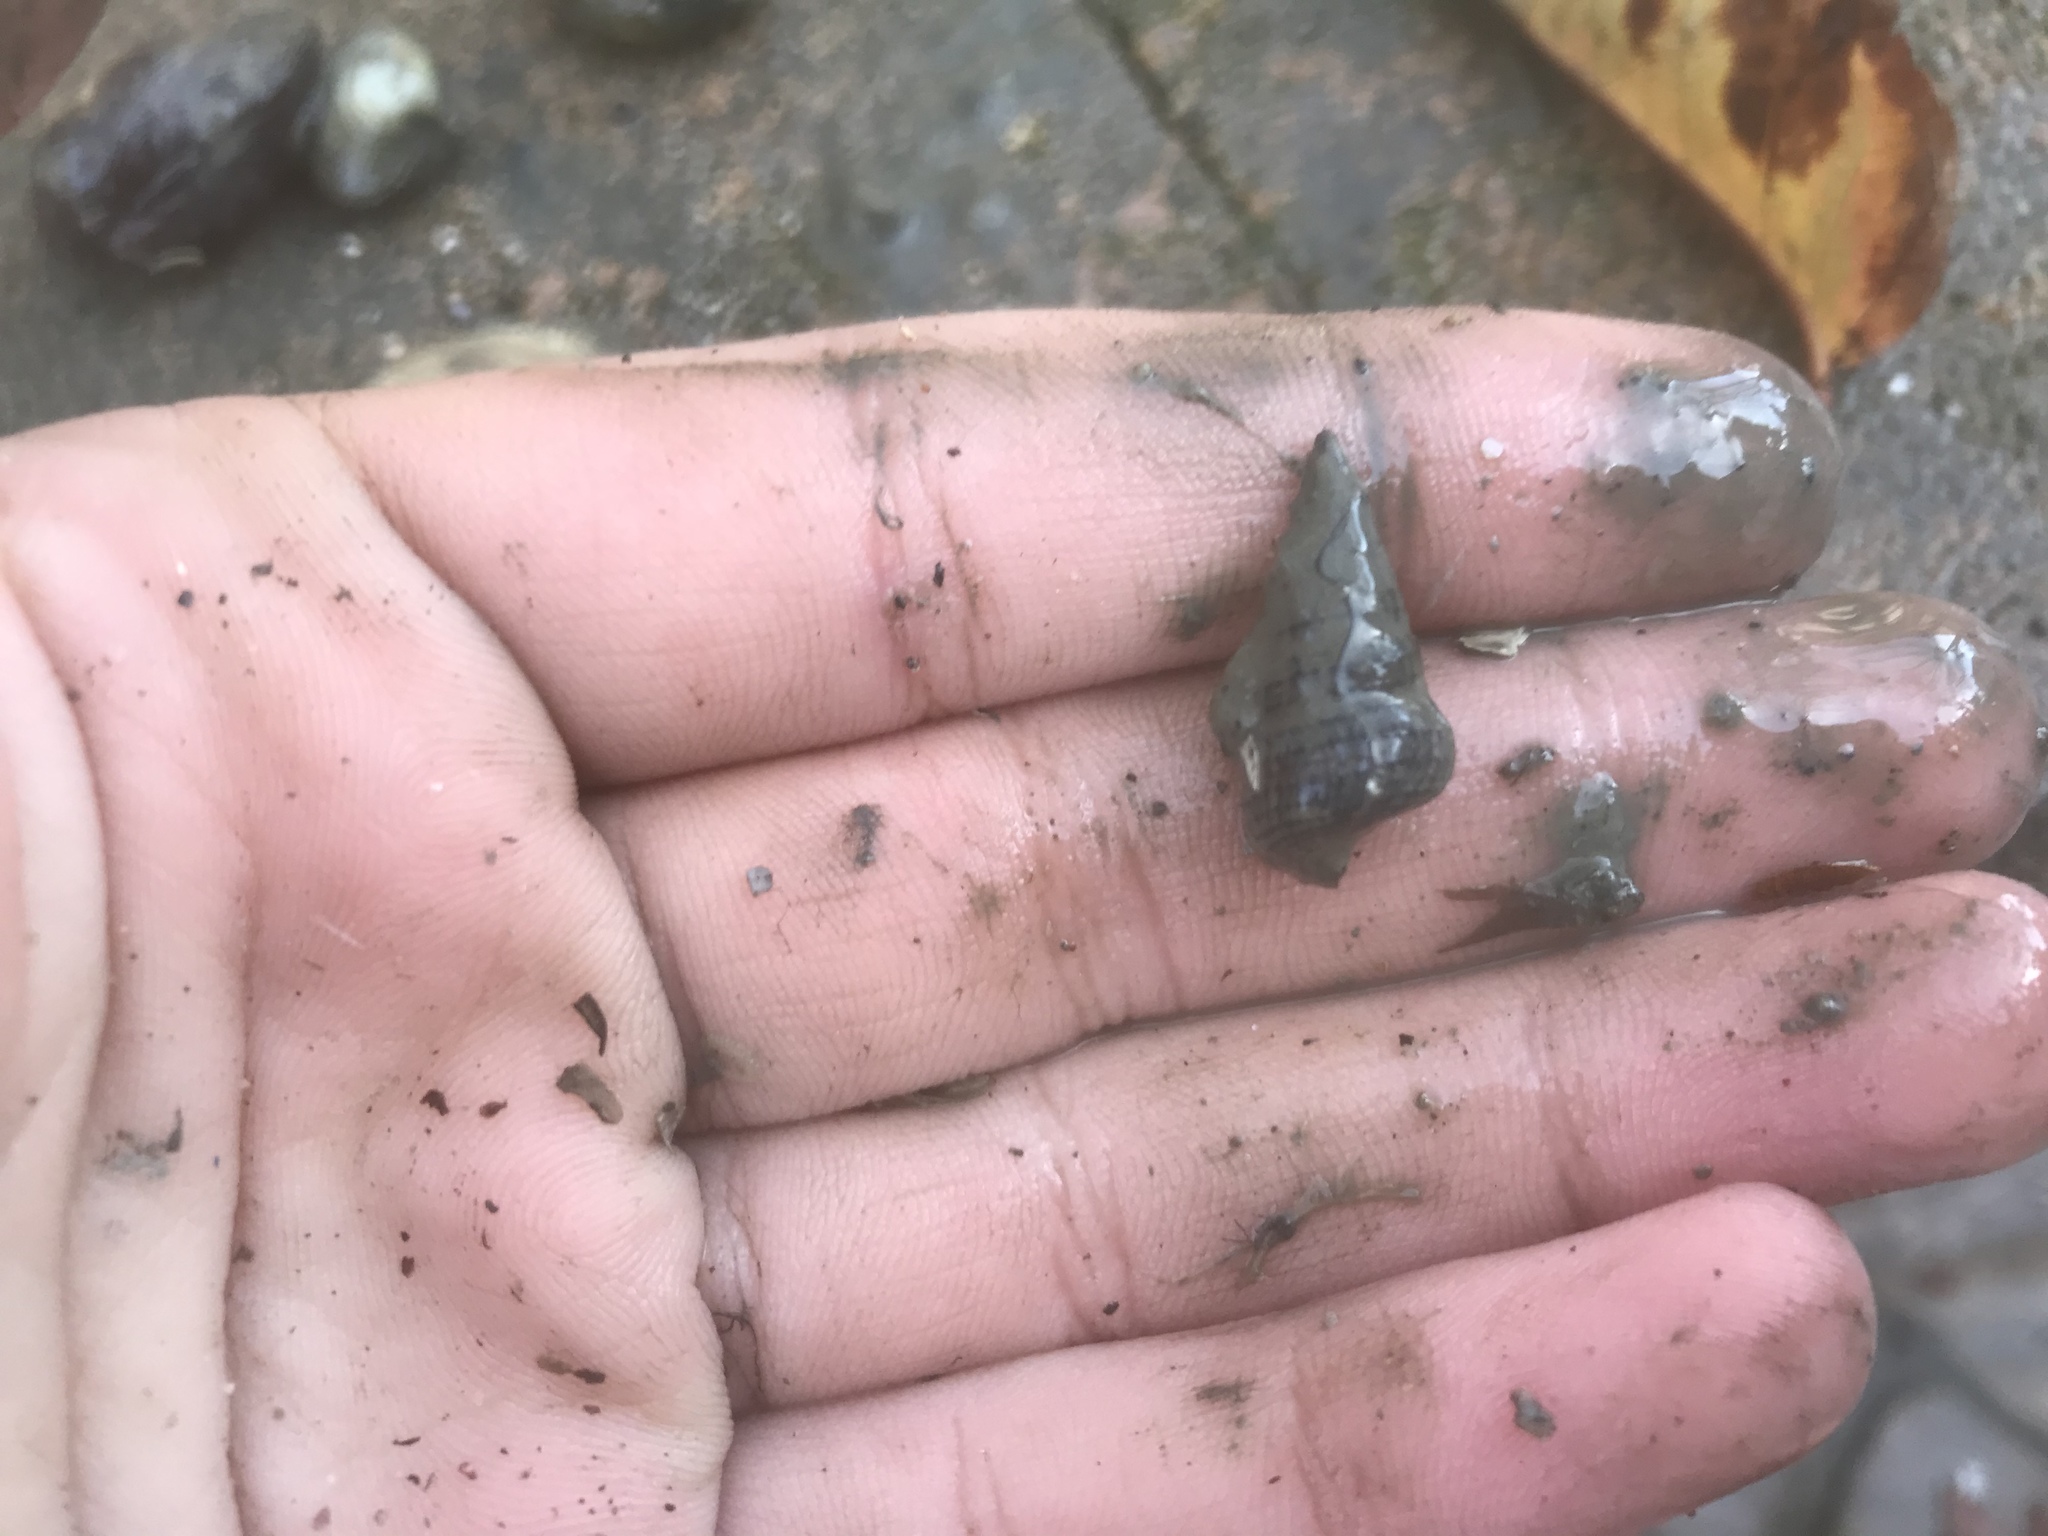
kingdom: Animalia
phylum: Mollusca
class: Gastropoda
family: Potamididae
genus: Cerithideopsis
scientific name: Cerithideopsis californica
